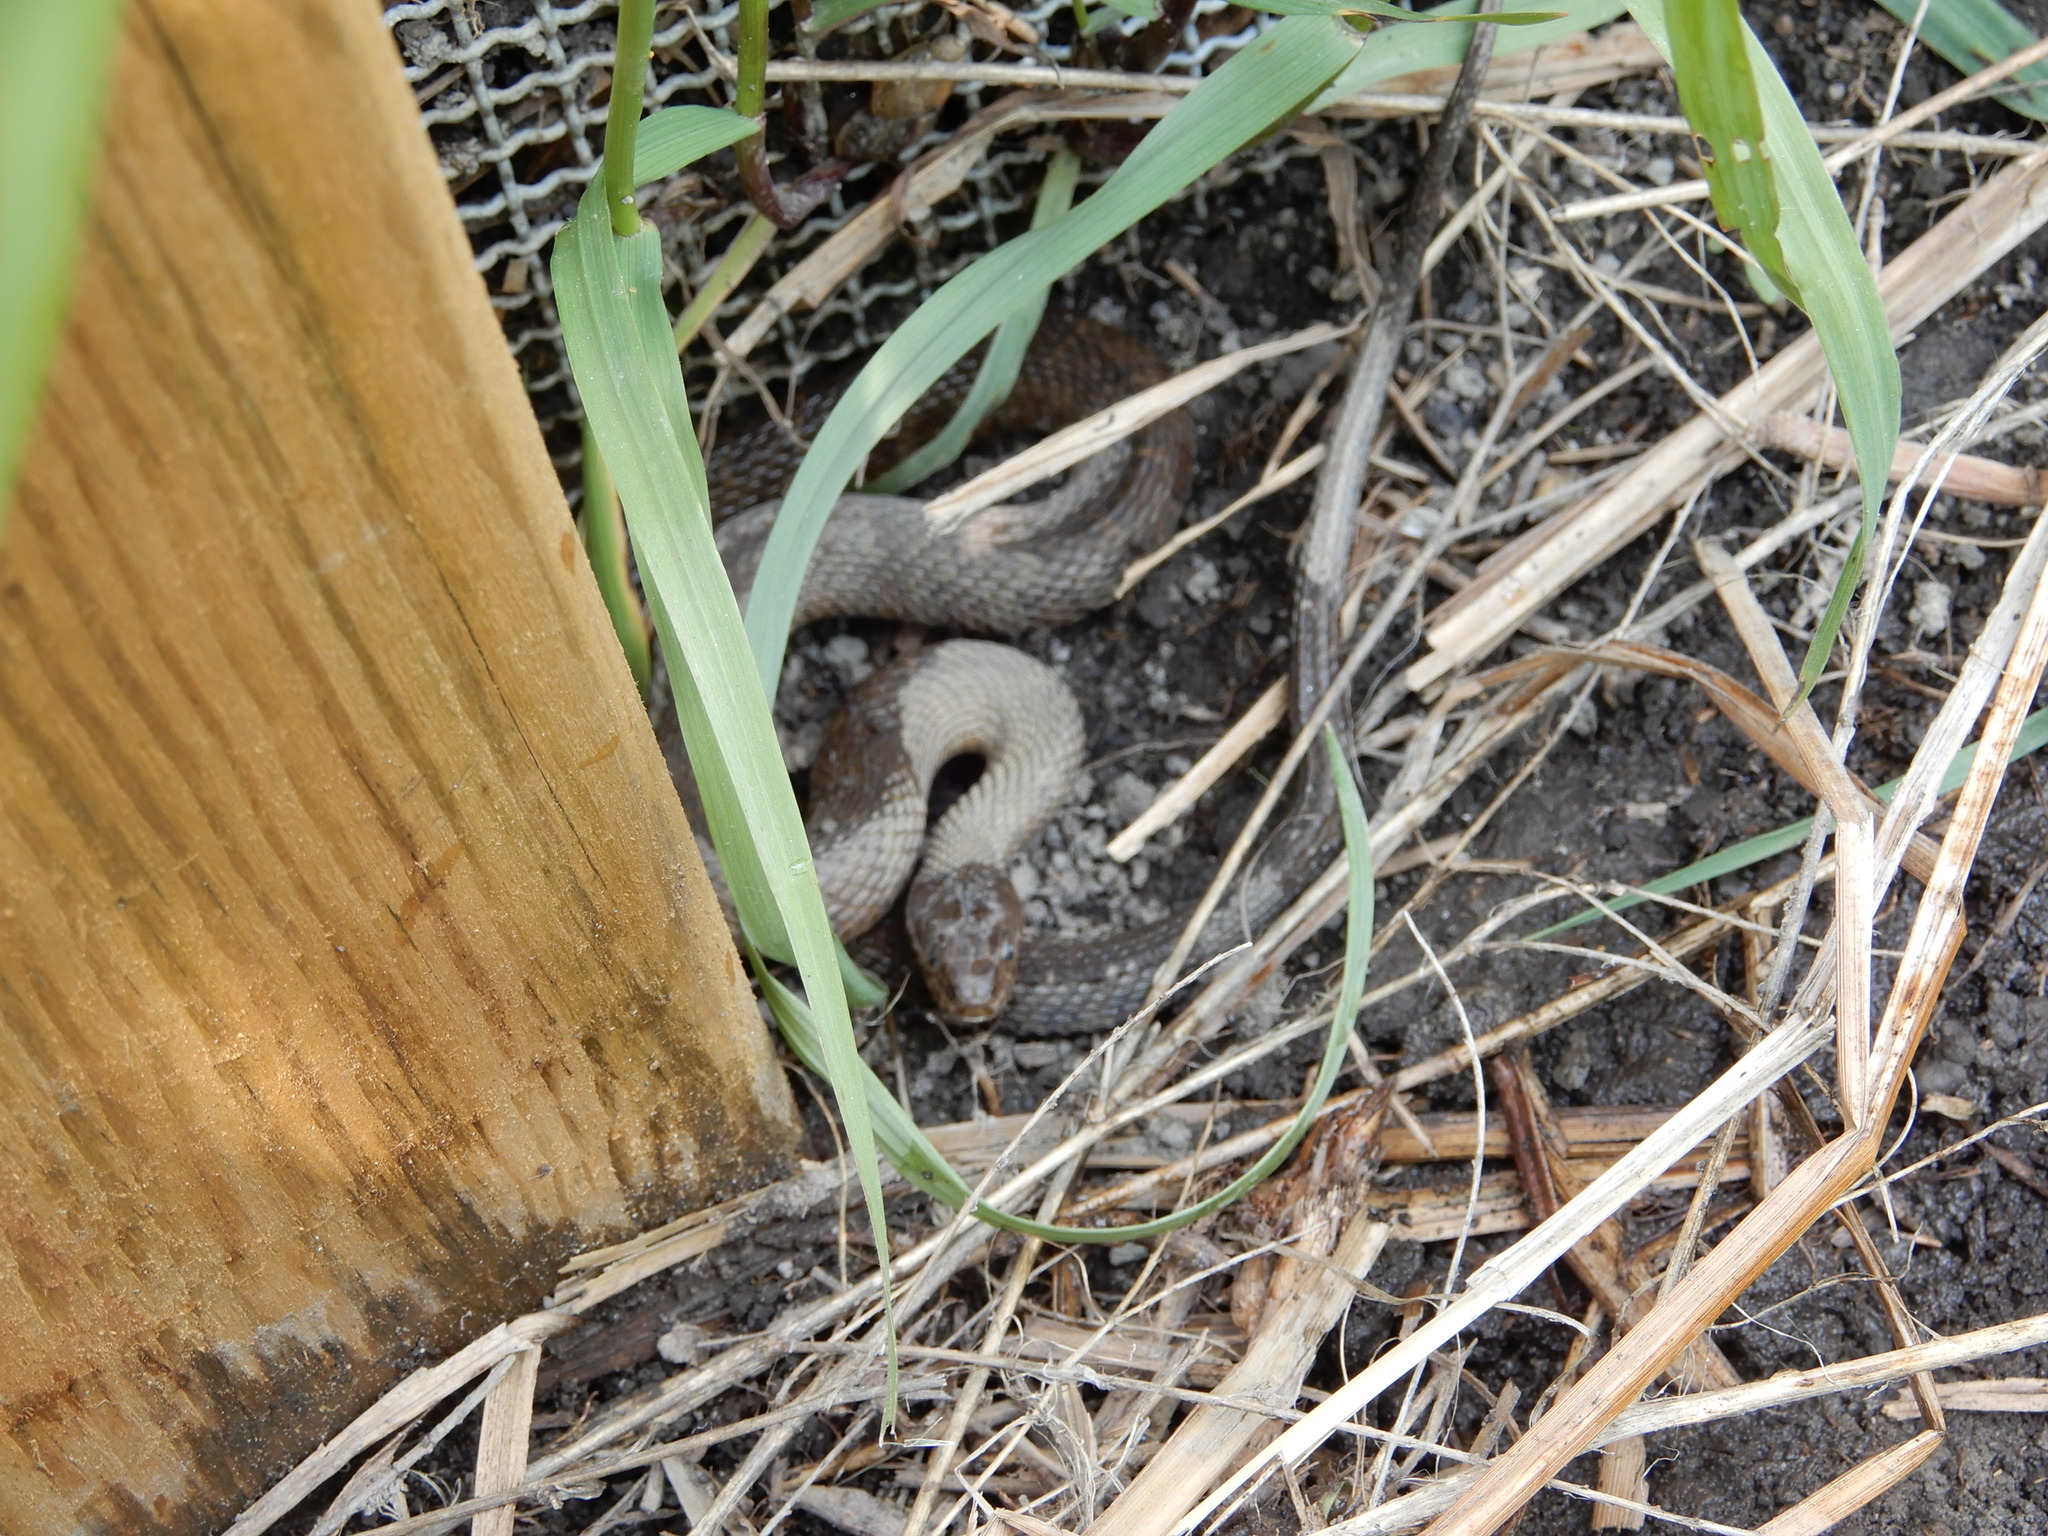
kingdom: Animalia
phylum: Chordata
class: Squamata
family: Colubridae
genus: Nerodia
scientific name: Nerodia sipedon
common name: Northern water snake
